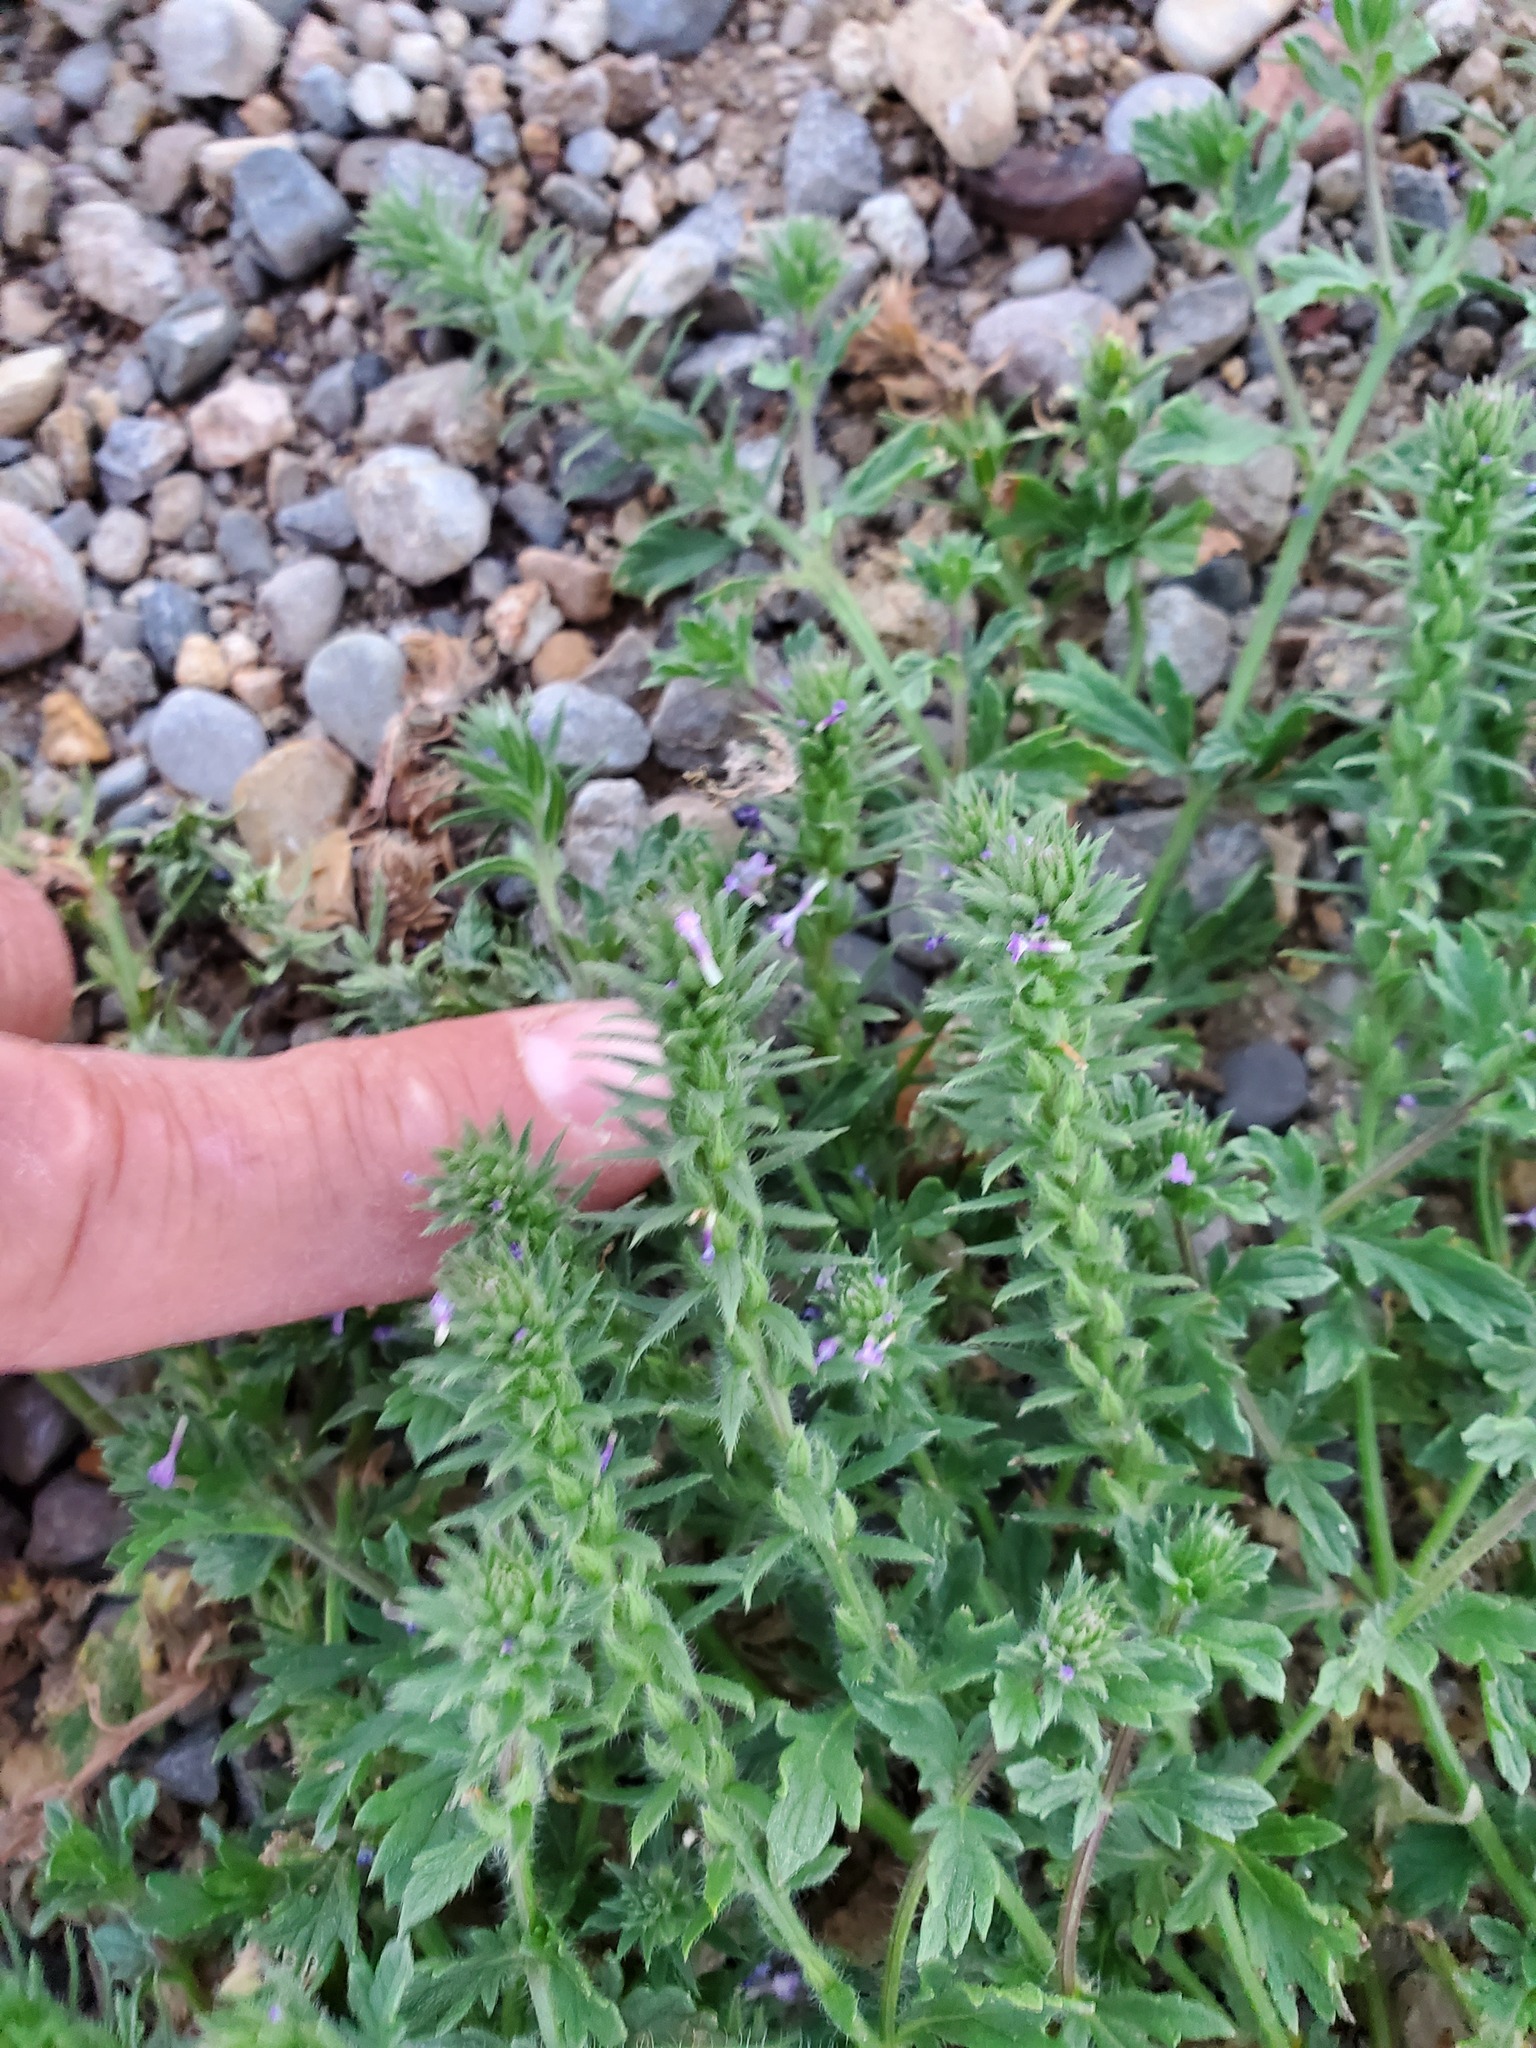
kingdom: Plantae
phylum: Tracheophyta
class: Magnoliopsida
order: Lamiales
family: Verbenaceae
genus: Verbena
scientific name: Verbena bracteata
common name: Bracted vervain
